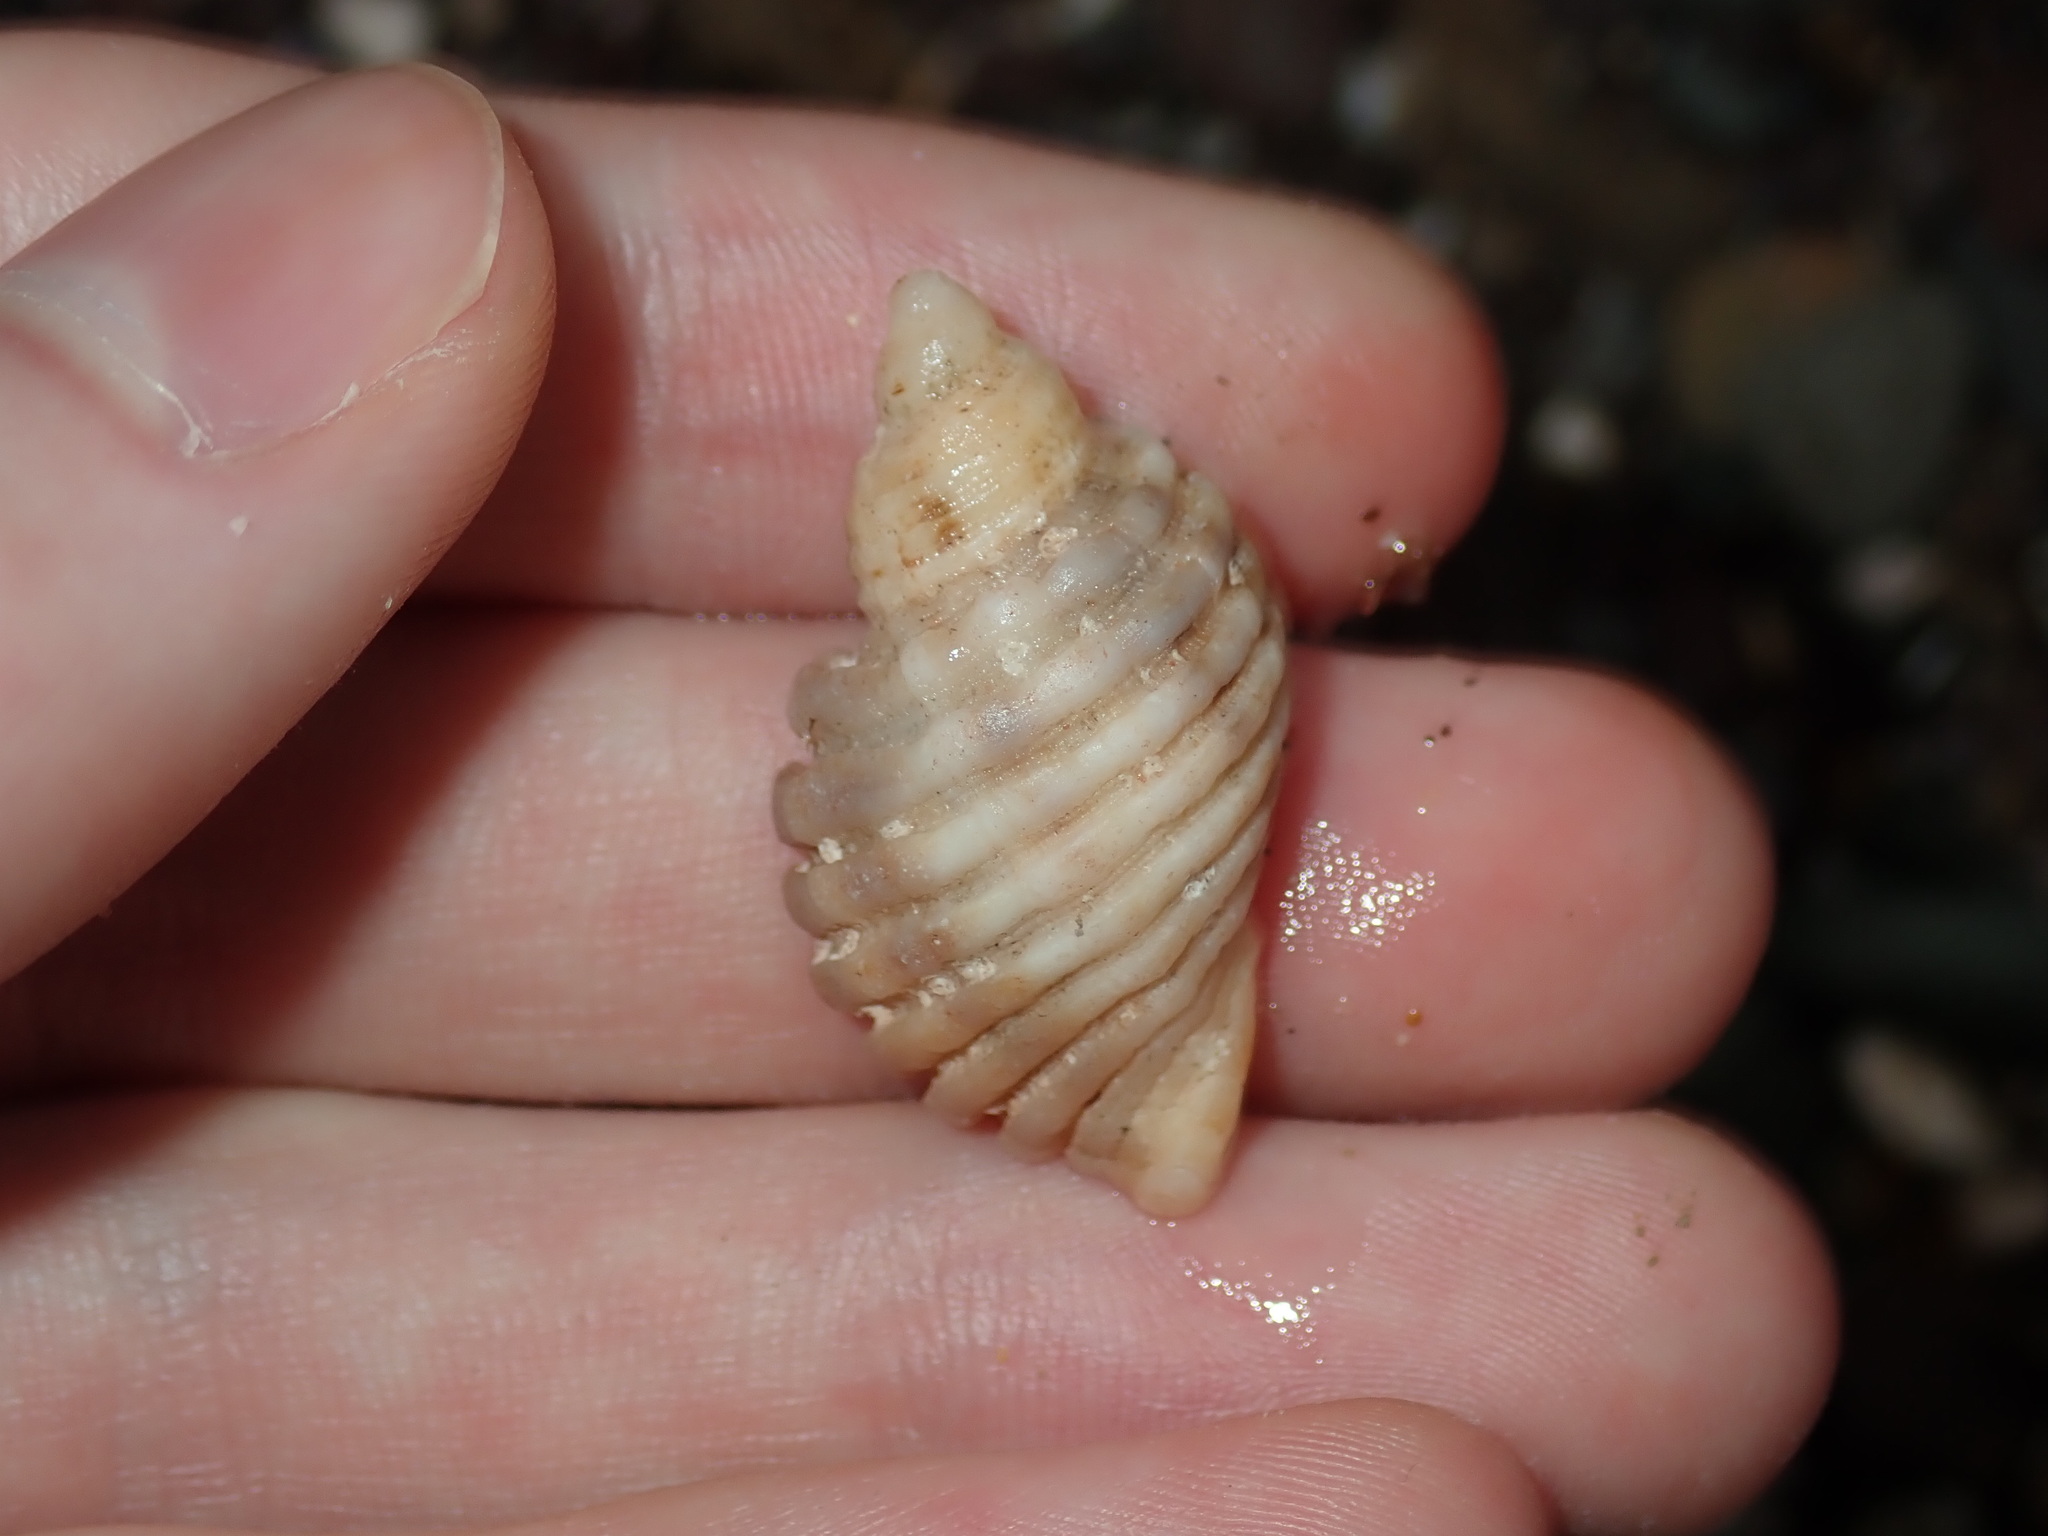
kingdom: Animalia
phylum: Mollusca
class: Gastropoda
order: Neogastropoda
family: Muricidae
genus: Dicathais
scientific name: Dicathais orbita
